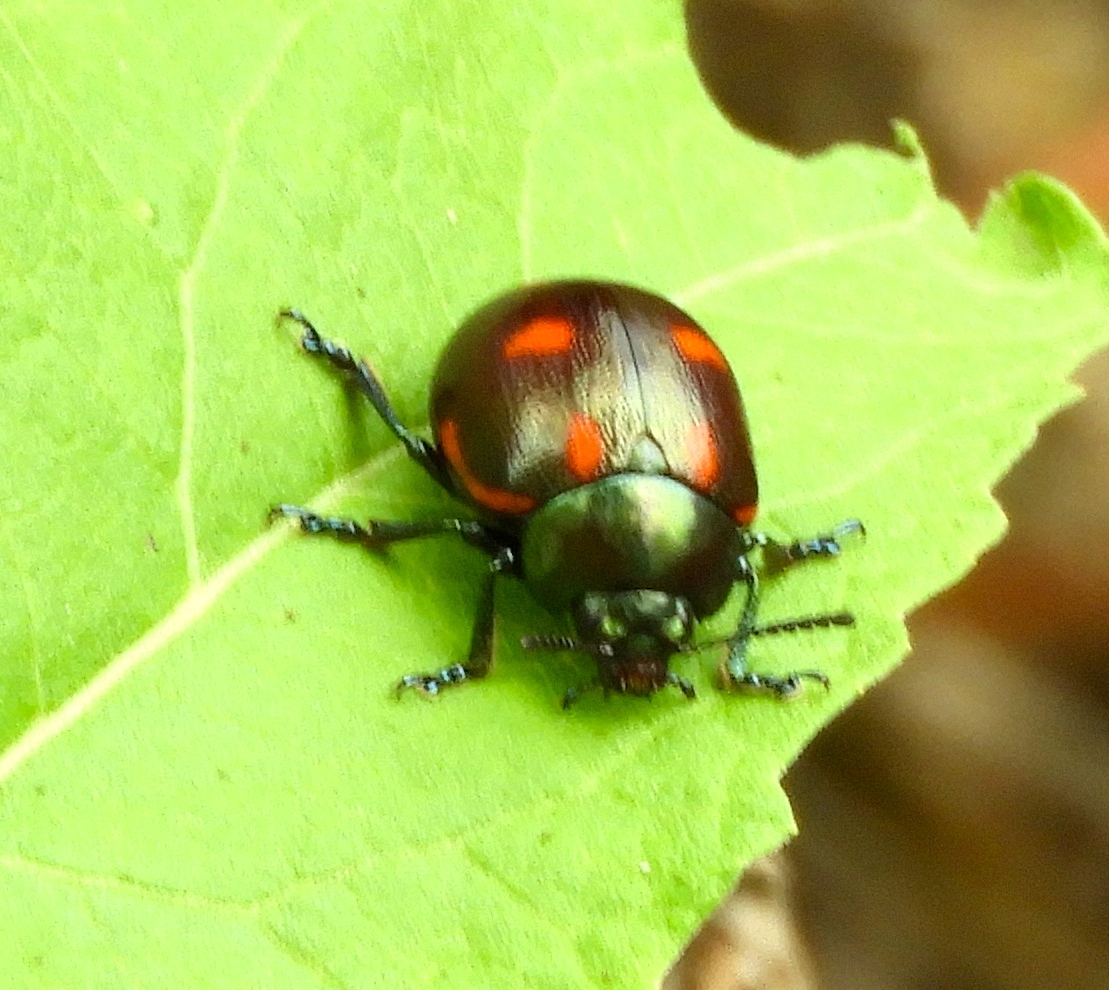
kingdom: Animalia
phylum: Arthropoda
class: Insecta
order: Coleoptera
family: Chrysomelidae
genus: Leptinotarsa
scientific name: Leptinotarsa behrensi
